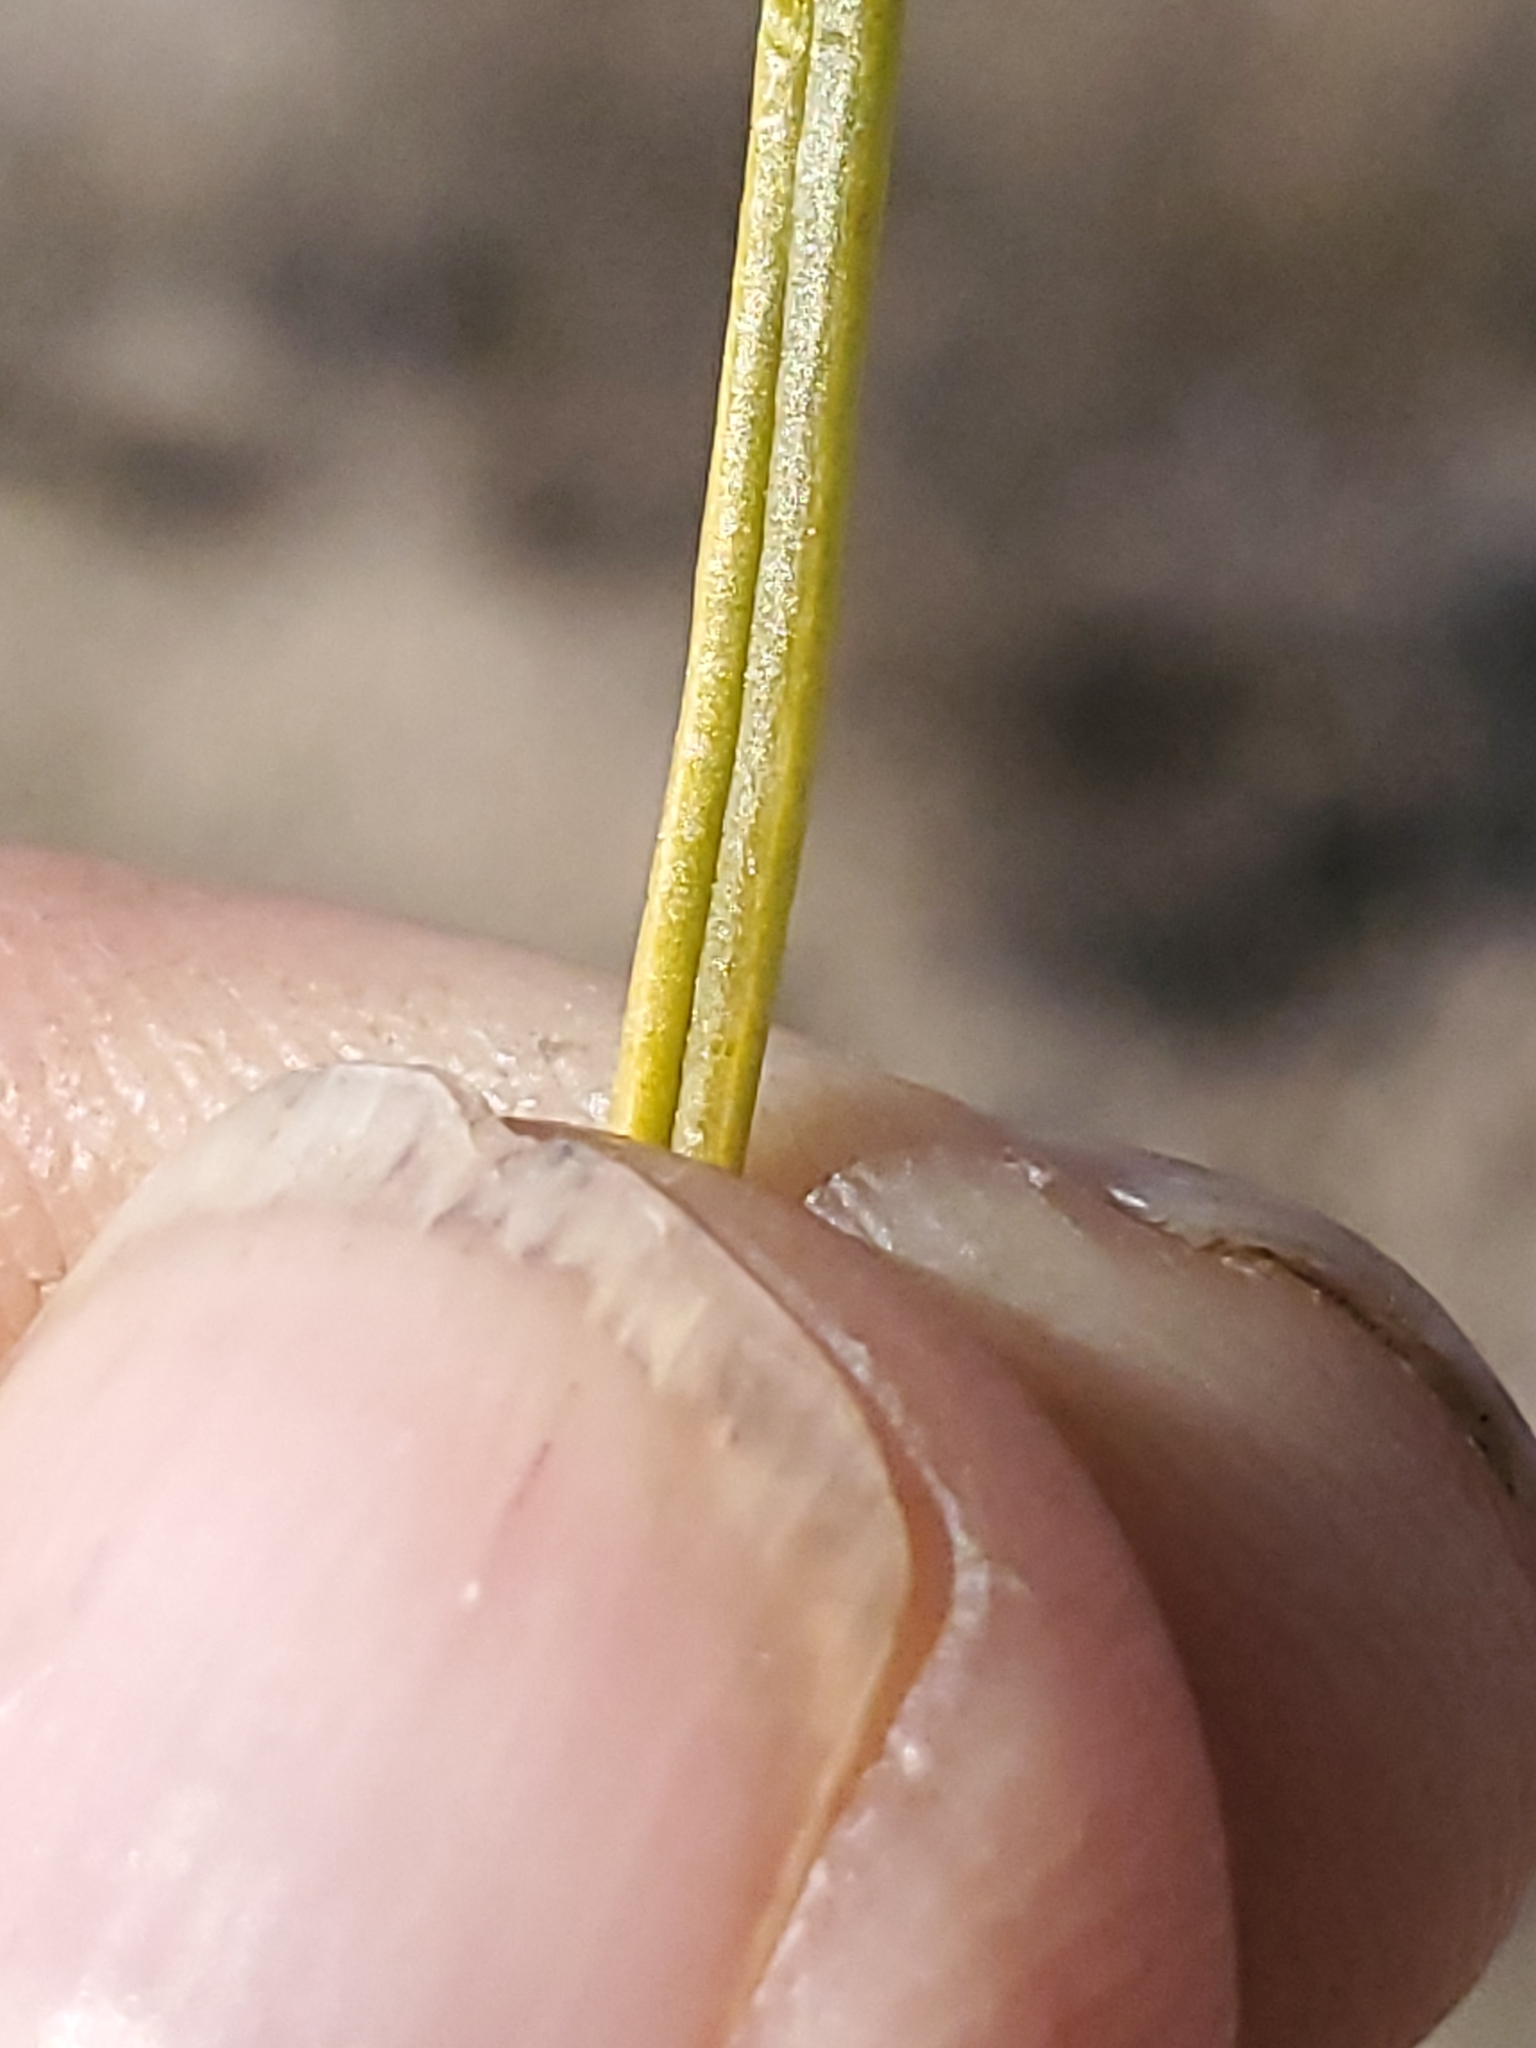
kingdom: Plantae
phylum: Tracheophyta
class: Magnoliopsida
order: Asterales
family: Asteraceae
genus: Sartwellia
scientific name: Sartwellia flaveriae
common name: Sartwellia
